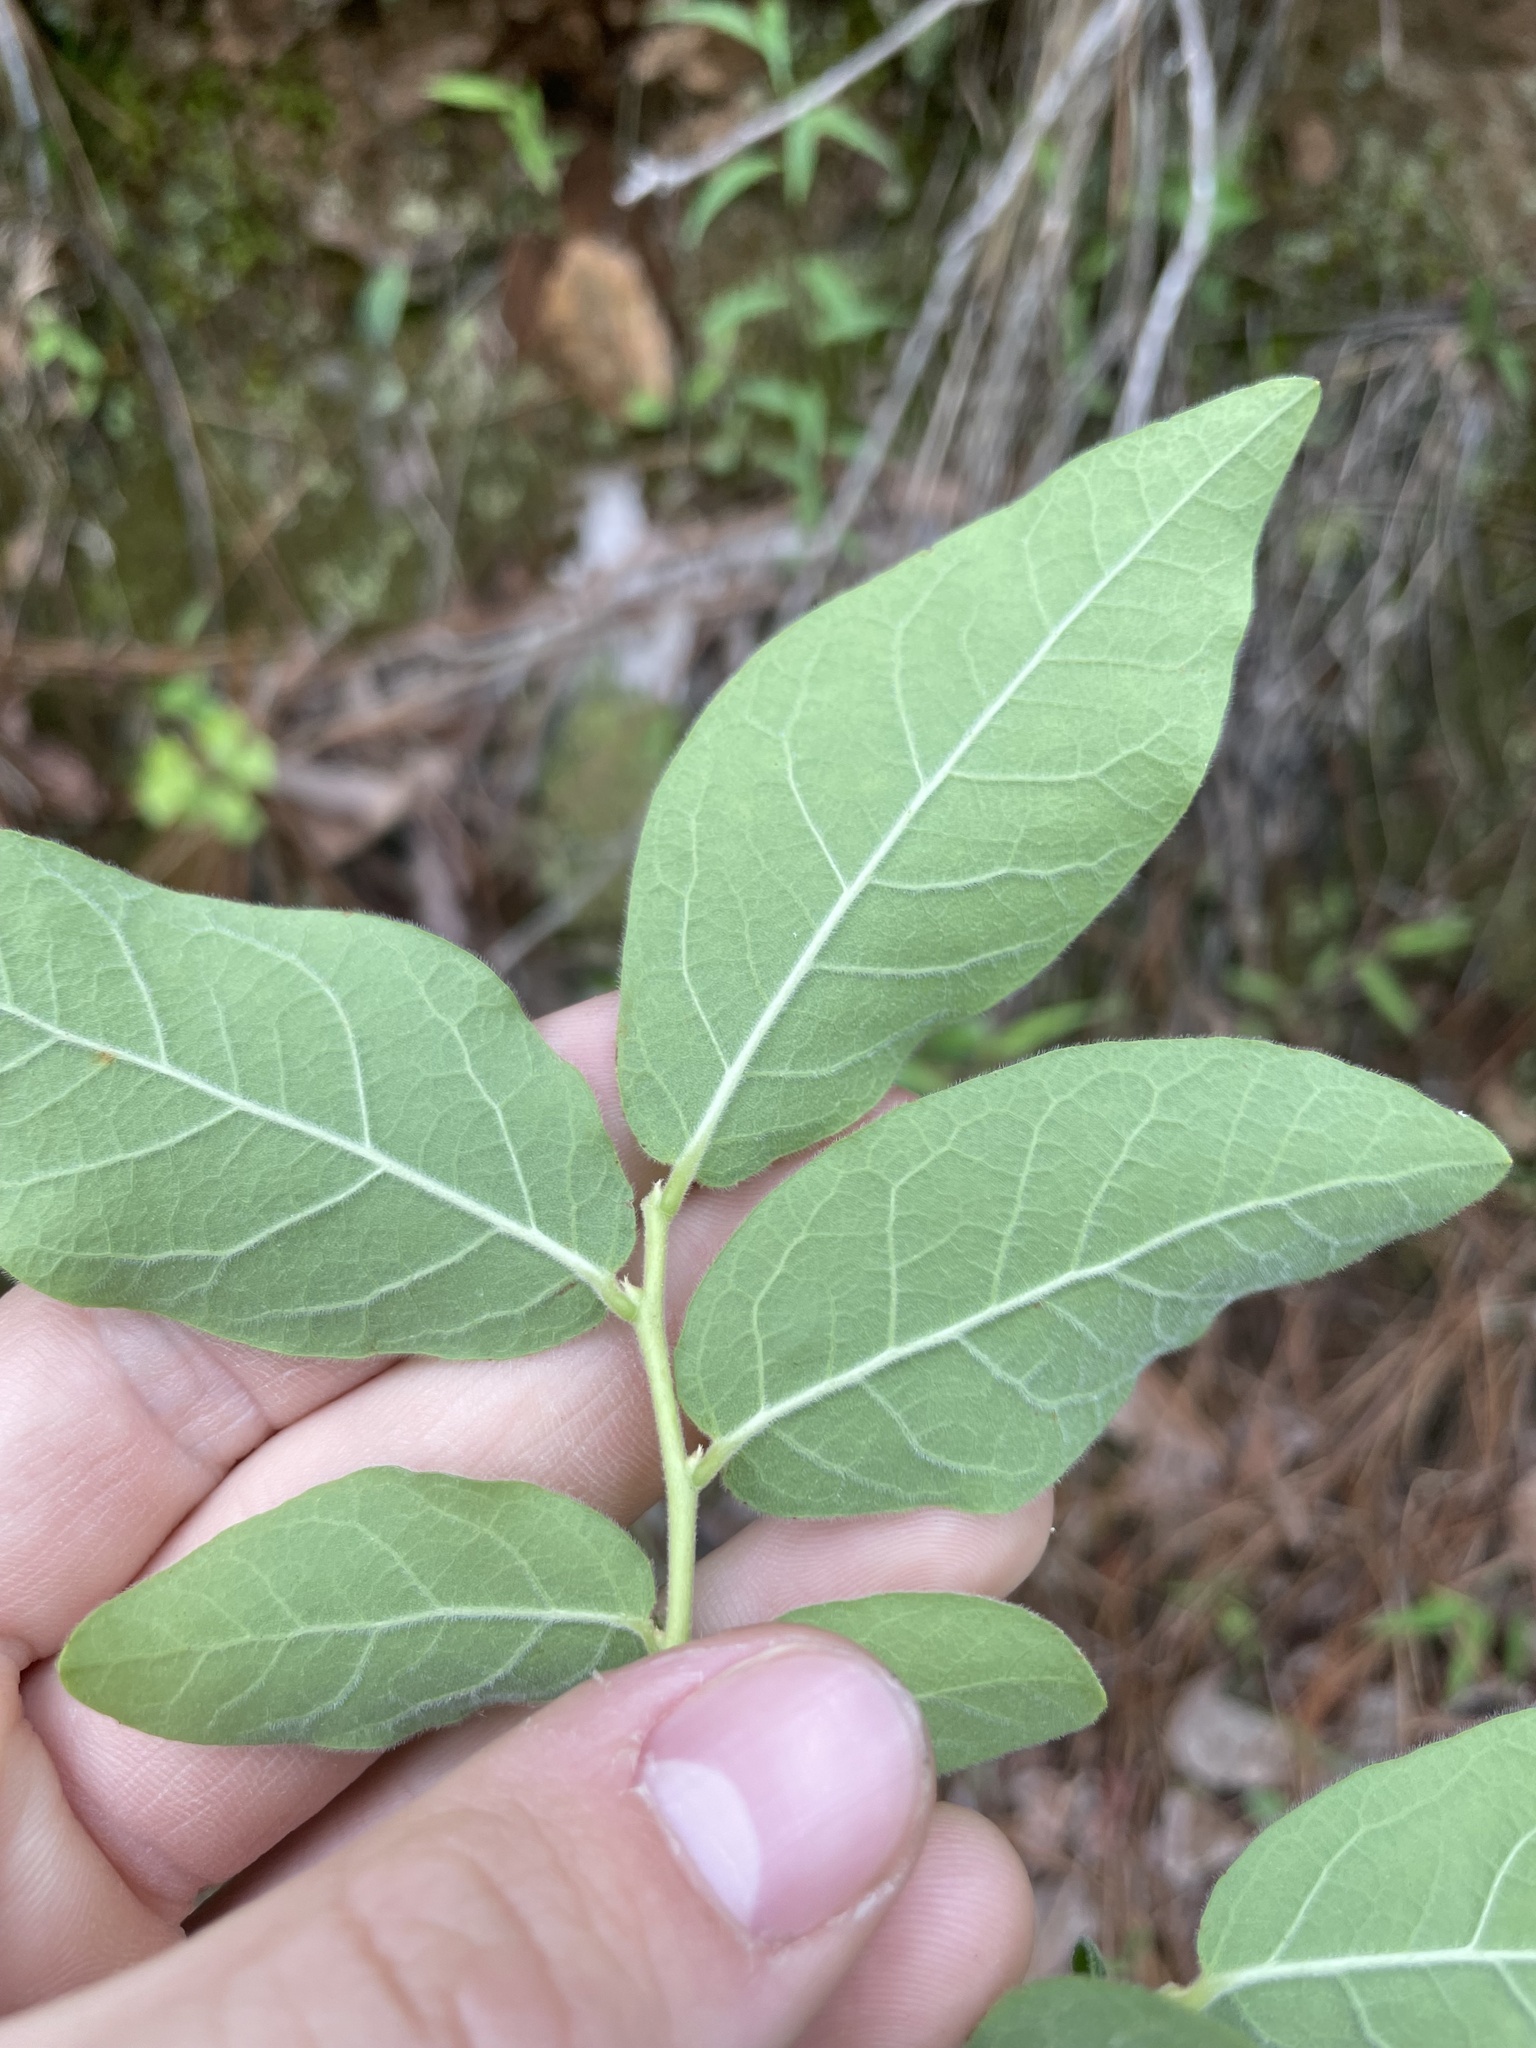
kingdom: Plantae
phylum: Tracheophyta
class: Magnoliopsida
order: Ericales
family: Ericaceae
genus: Vaccinium
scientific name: Vaccinium
